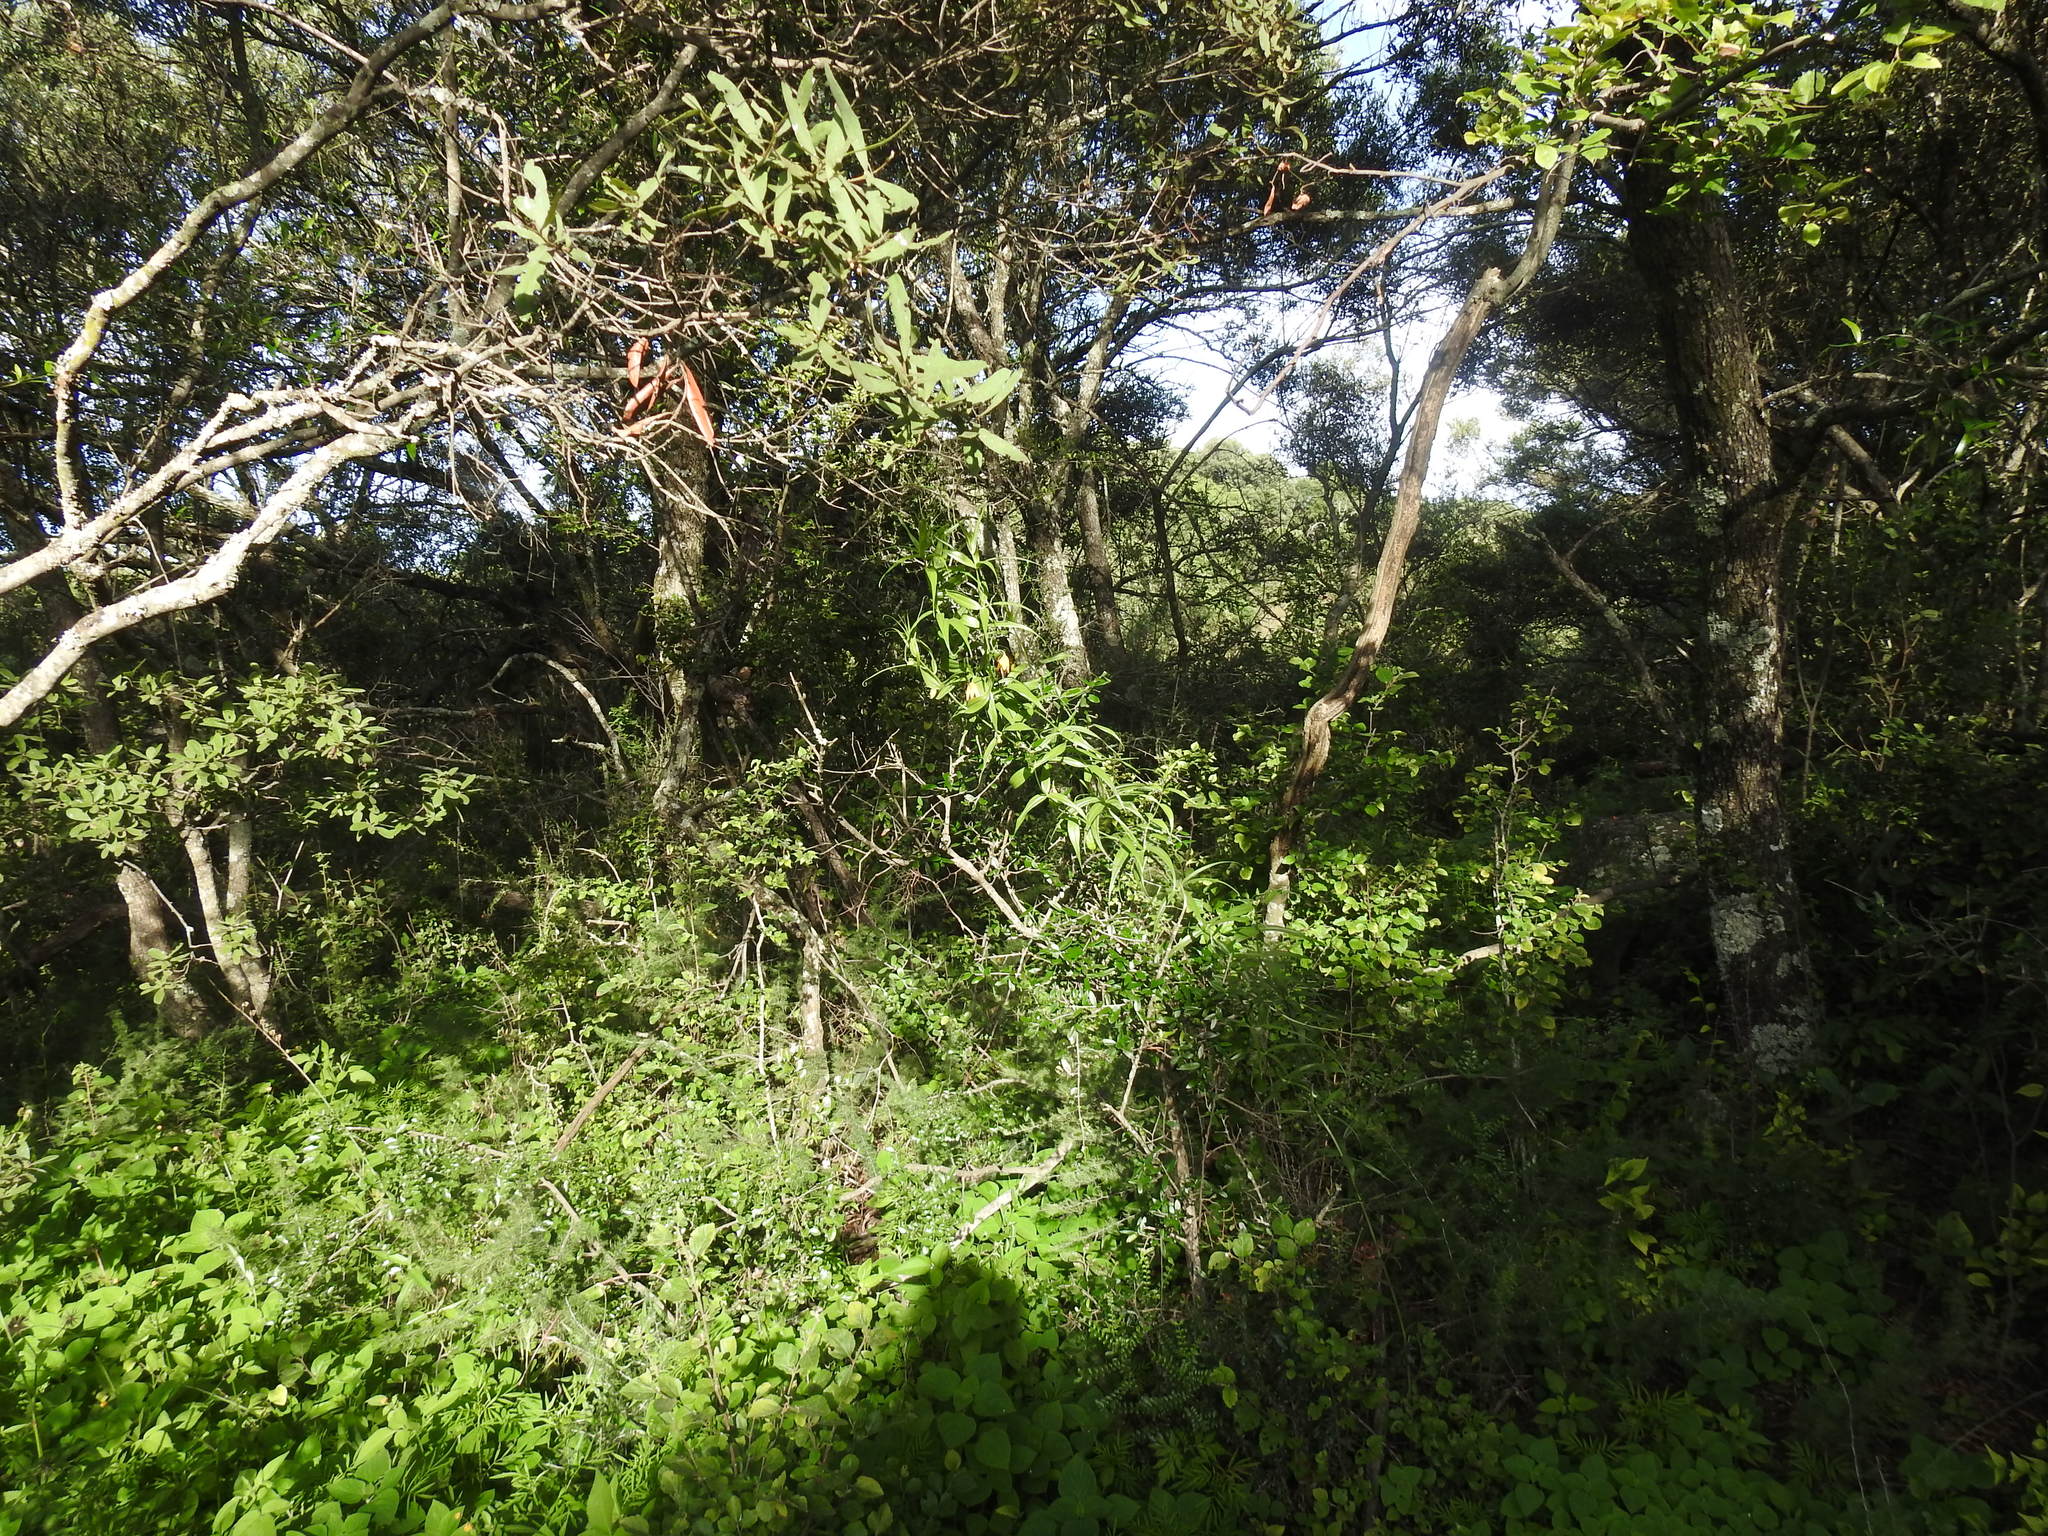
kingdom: Plantae
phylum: Tracheophyta
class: Liliopsida
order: Liliales
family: Colchicaceae
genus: Gloriosa
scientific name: Gloriosa modesta
